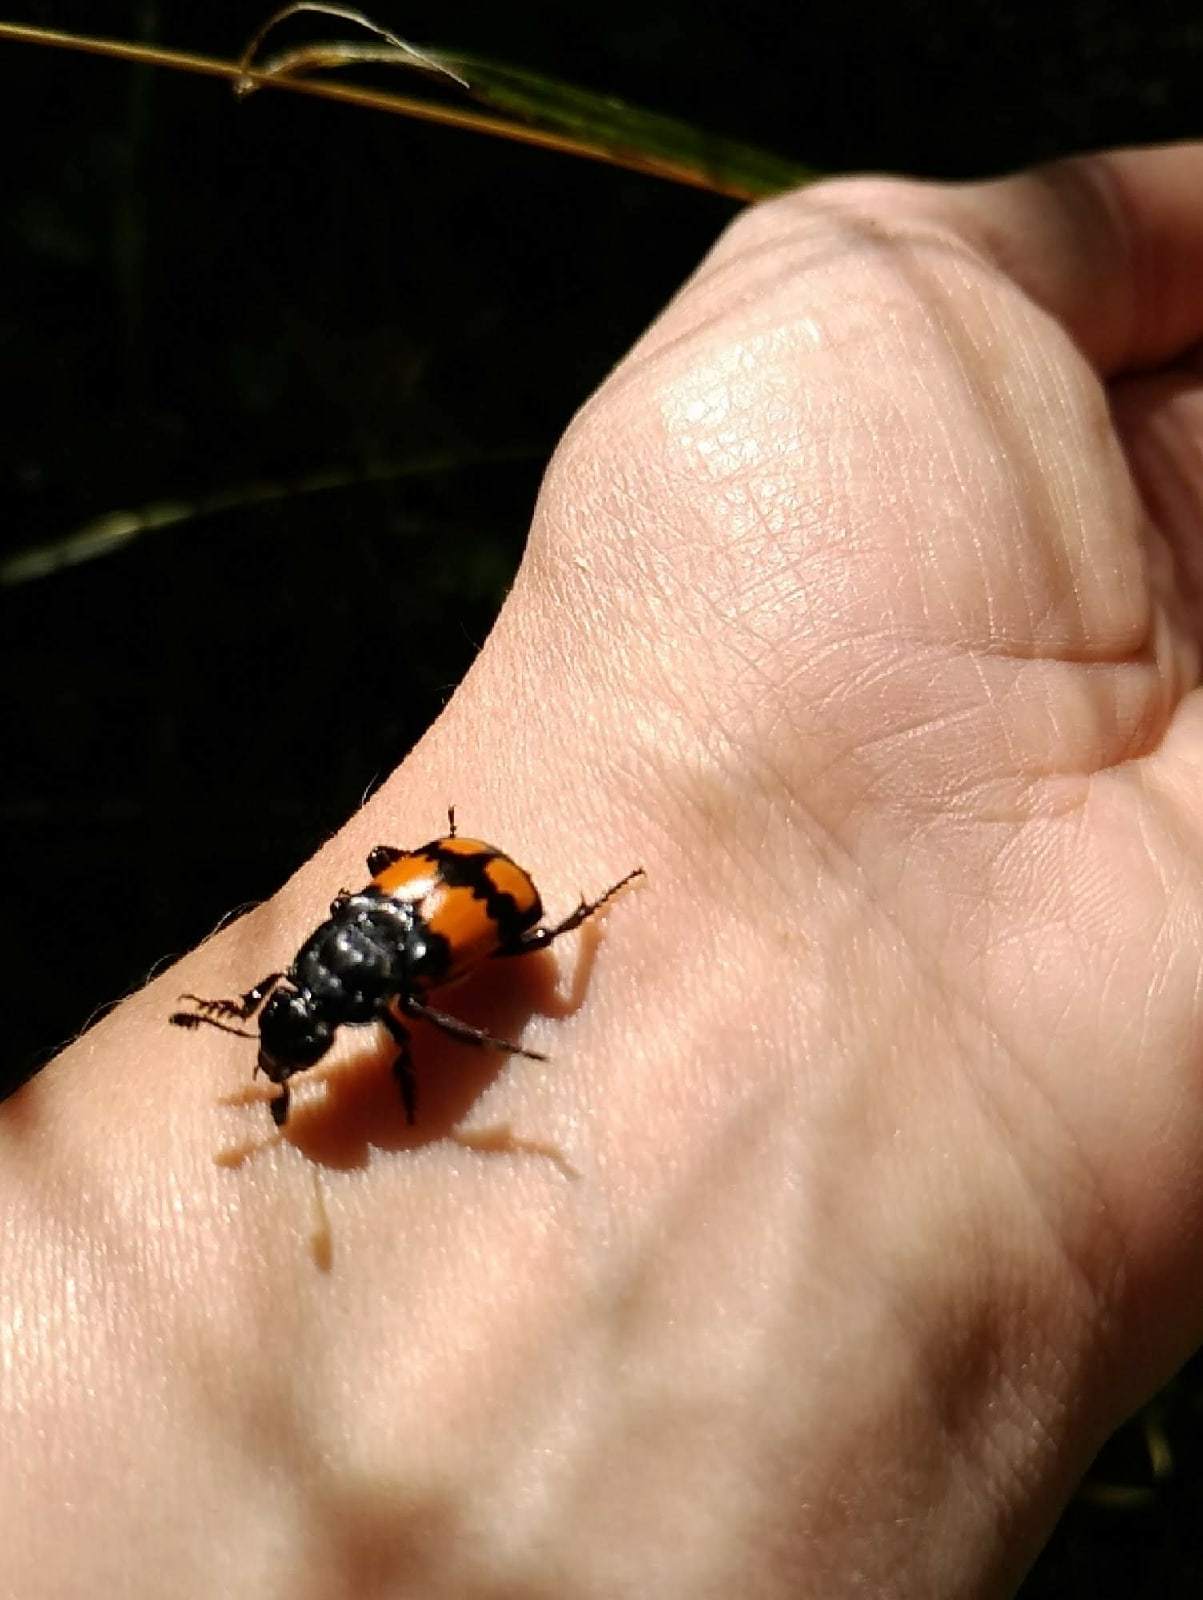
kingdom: Animalia
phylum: Arthropoda
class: Insecta
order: Coleoptera
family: Staphylinidae
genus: Nicrophorus
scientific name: Nicrophorus vespilloides
